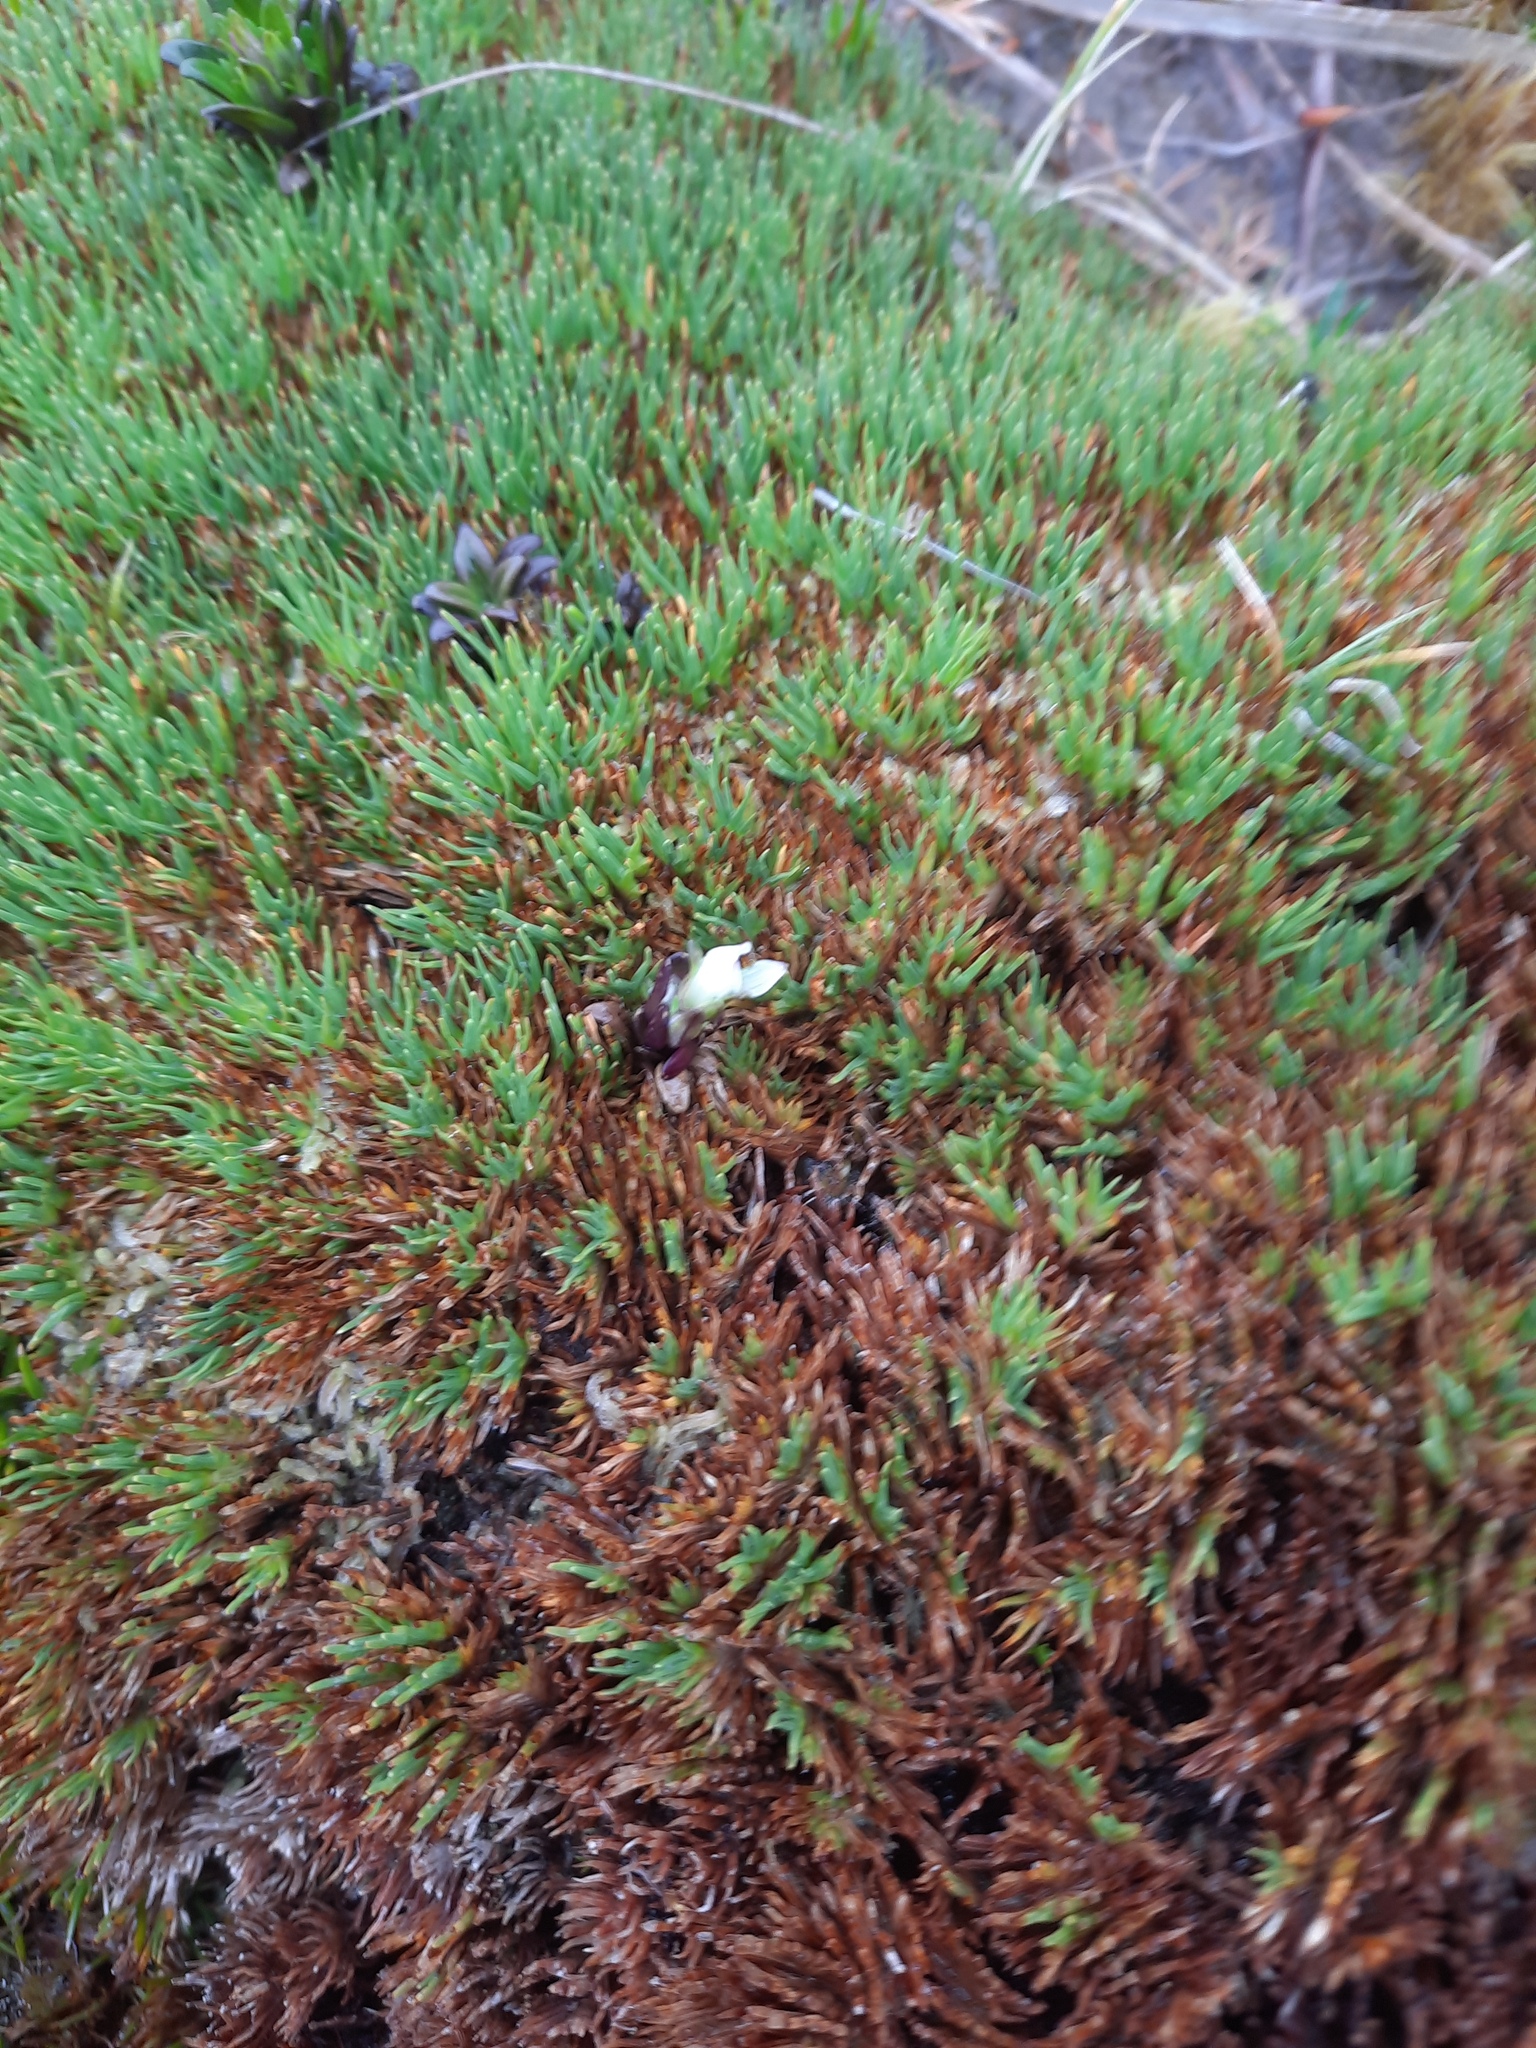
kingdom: Plantae
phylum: Tracheophyta
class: Liliopsida
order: Poales
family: Cyperaceae
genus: Oreobolus
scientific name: Oreobolus pectinatus
